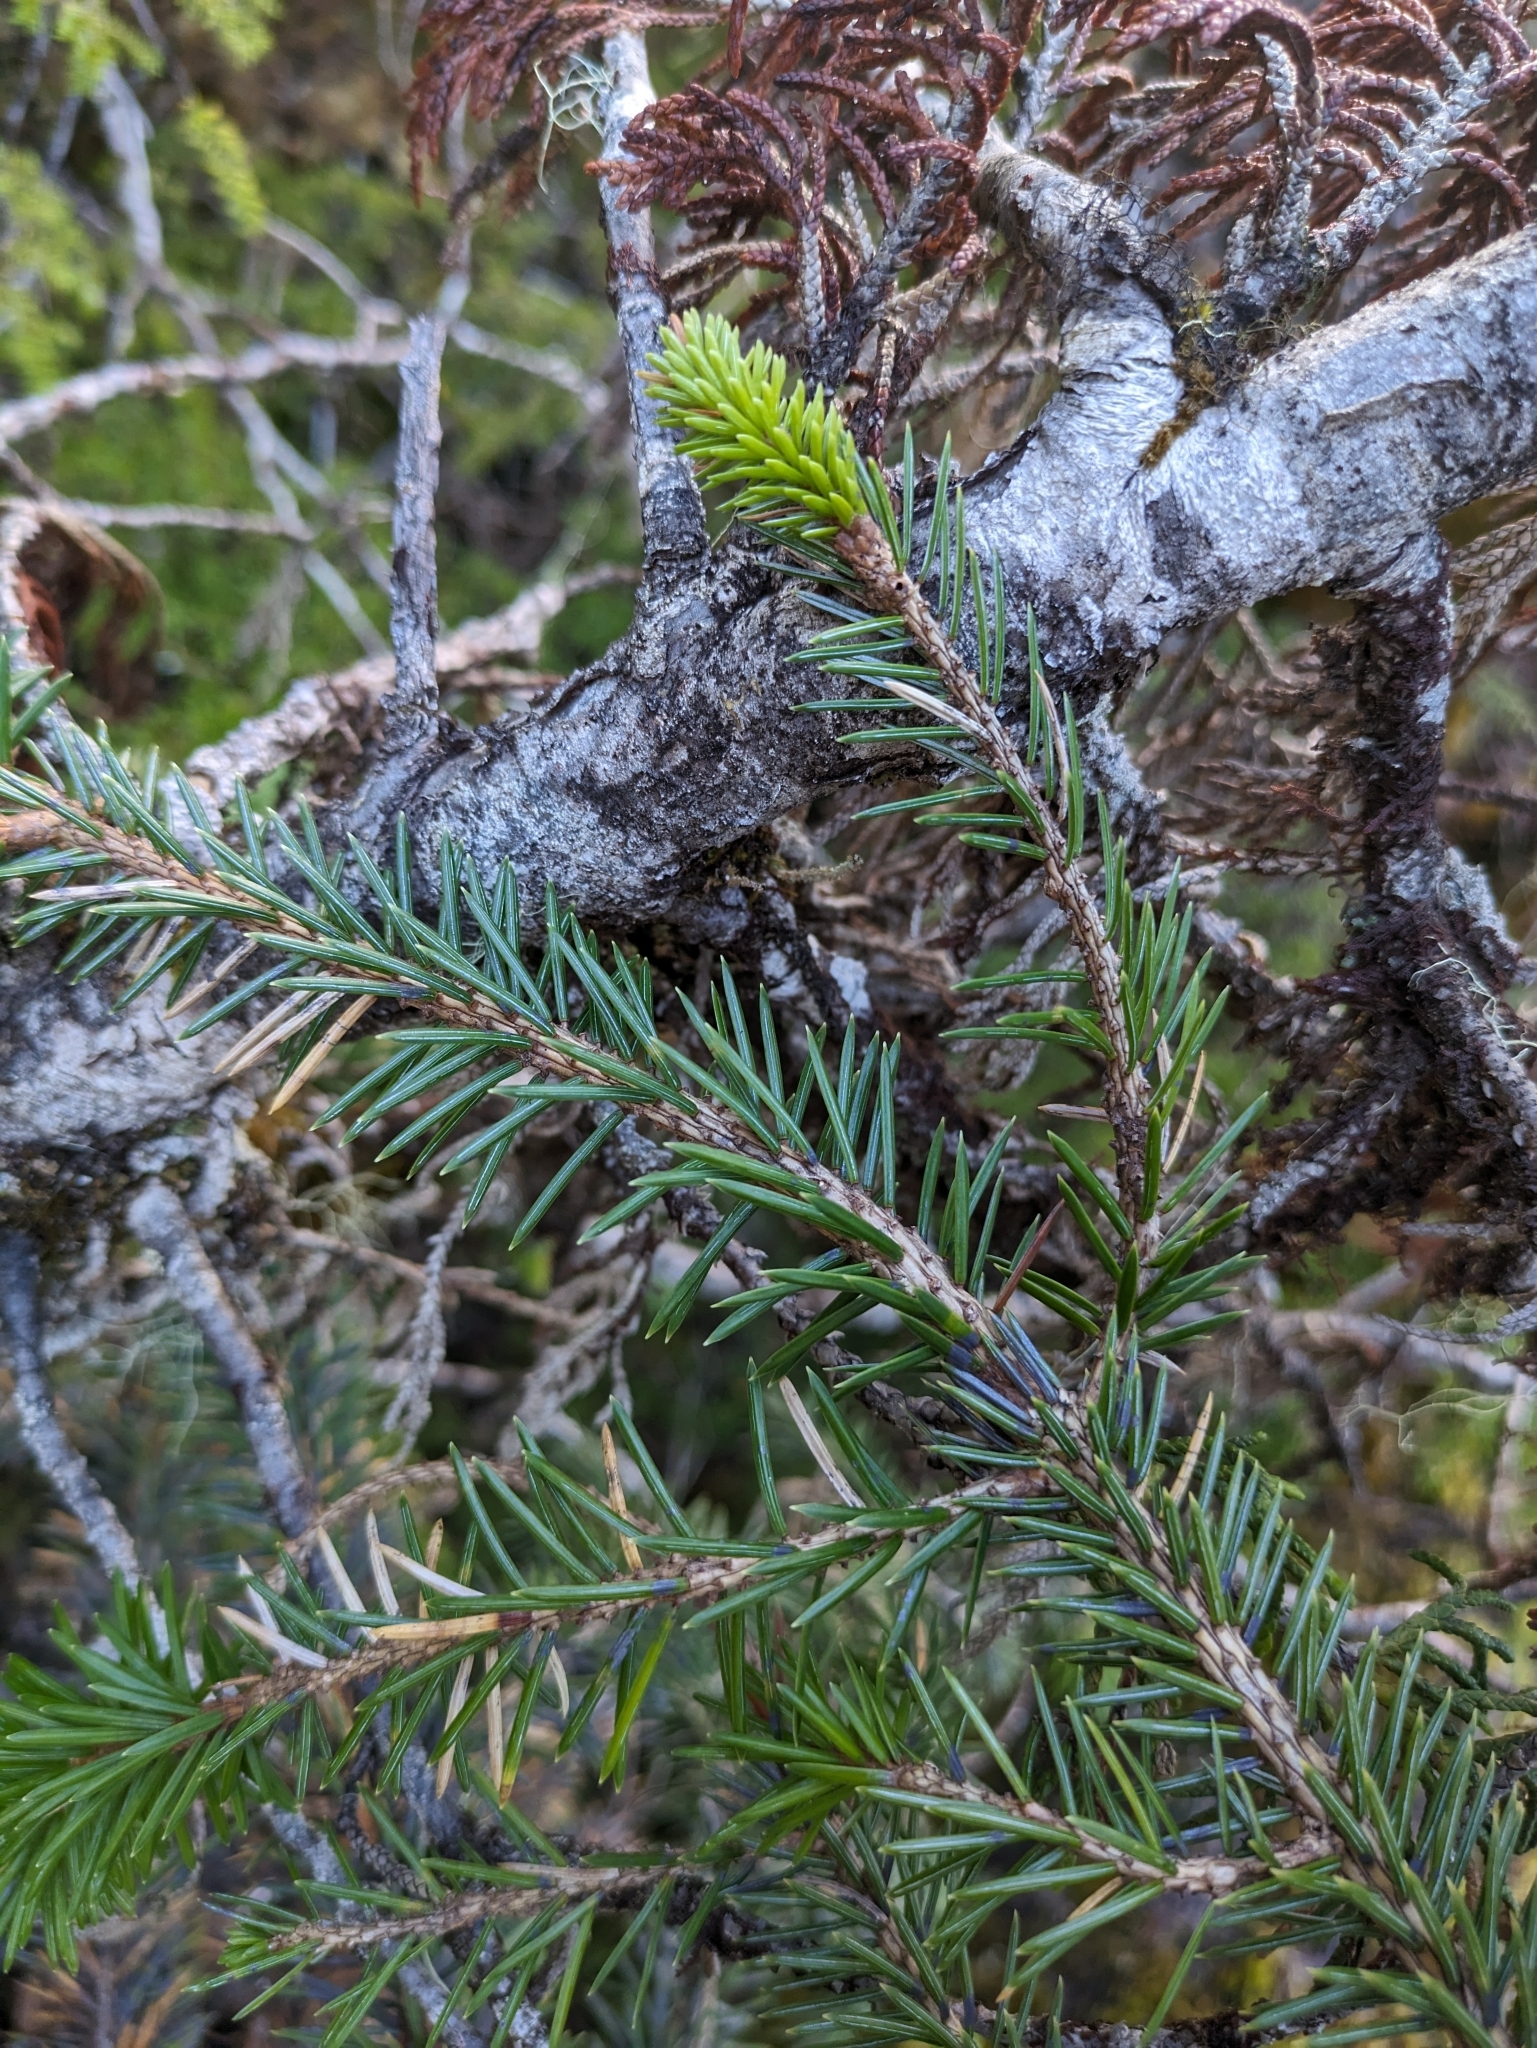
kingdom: Plantae
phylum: Tracheophyta
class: Pinopsida
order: Pinales
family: Pinaceae
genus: Picea
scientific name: Picea sitchensis
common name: Sitka spruce
